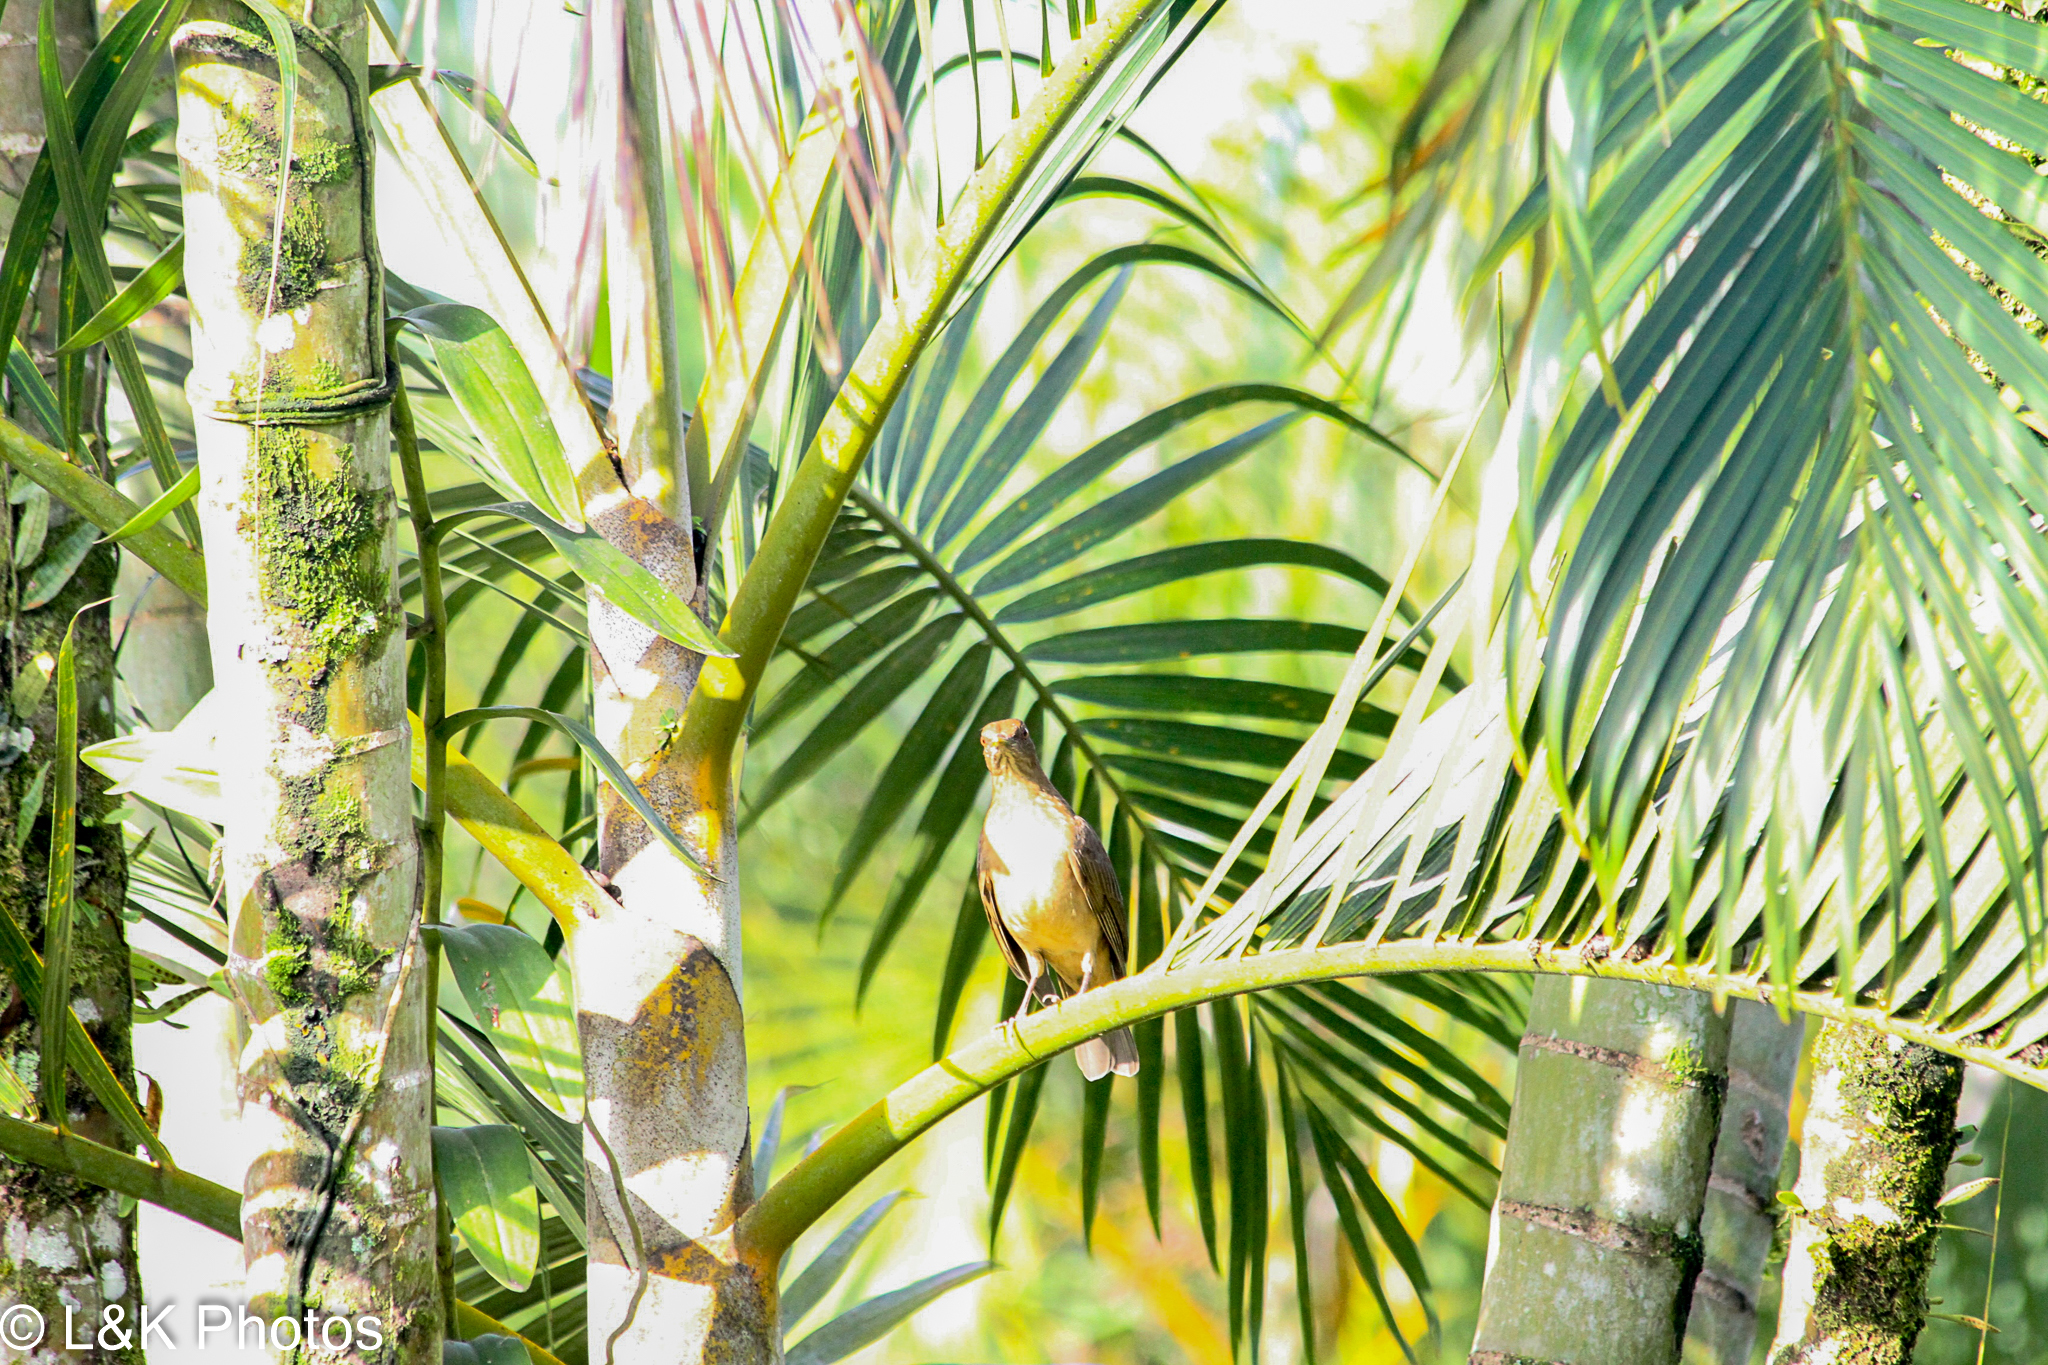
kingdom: Animalia
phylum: Chordata
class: Aves
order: Passeriformes
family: Turdidae
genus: Turdus
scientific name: Turdus grayi
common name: Clay-colored thrush
